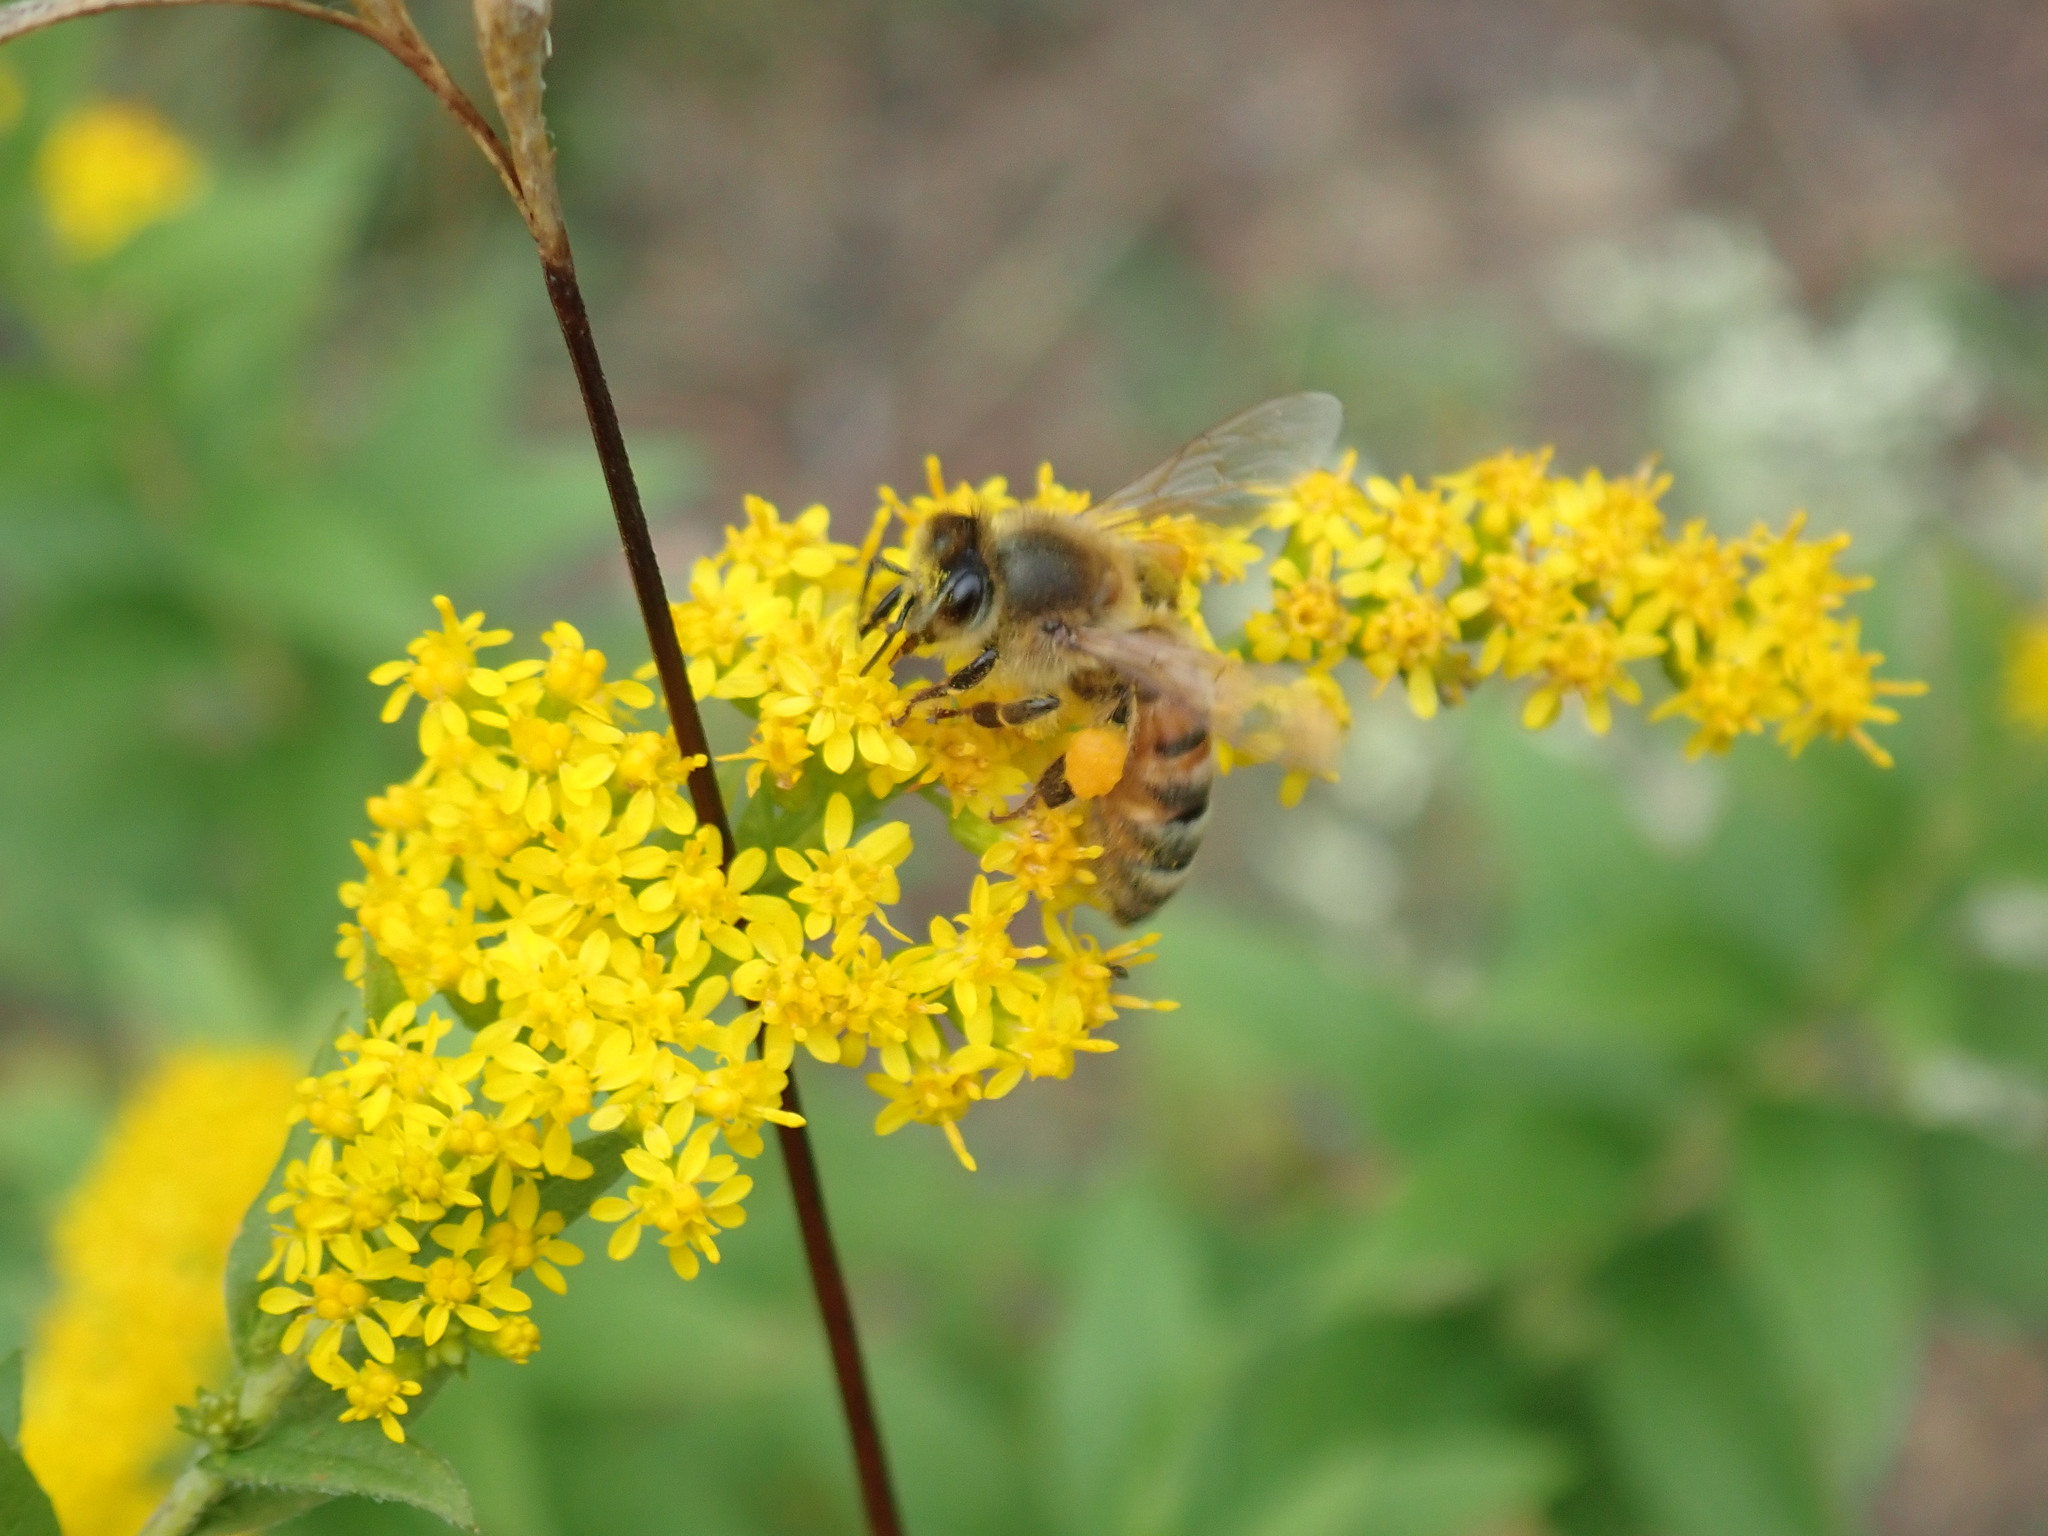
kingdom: Animalia
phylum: Arthropoda
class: Insecta
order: Hymenoptera
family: Apidae
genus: Apis
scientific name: Apis mellifera
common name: Honey bee
